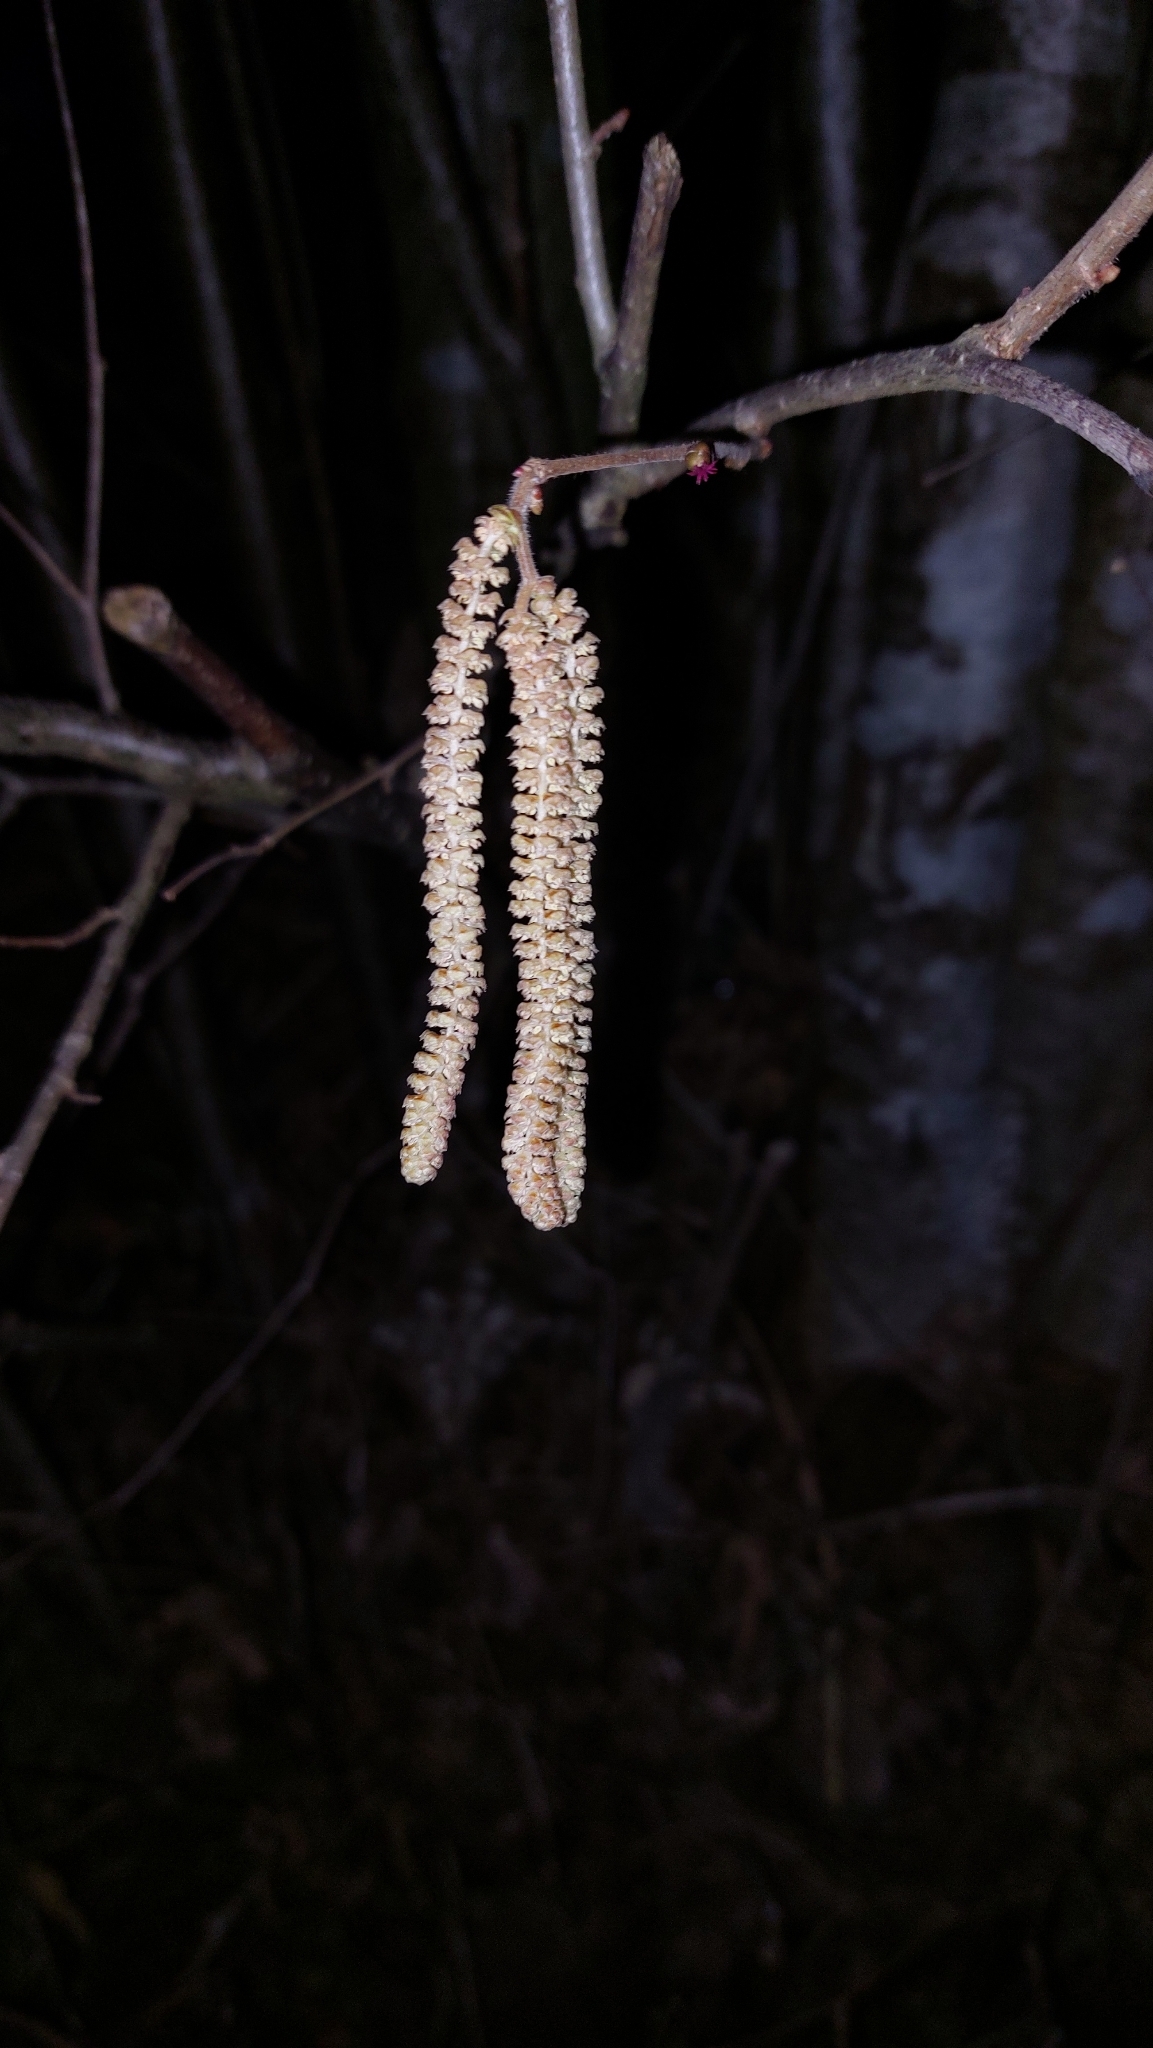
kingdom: Plantae
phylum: Tracheophyta
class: Magnoliopsida
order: Fagales
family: Betulaceae
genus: Corylus
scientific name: Corylus avellana
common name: European hazel
